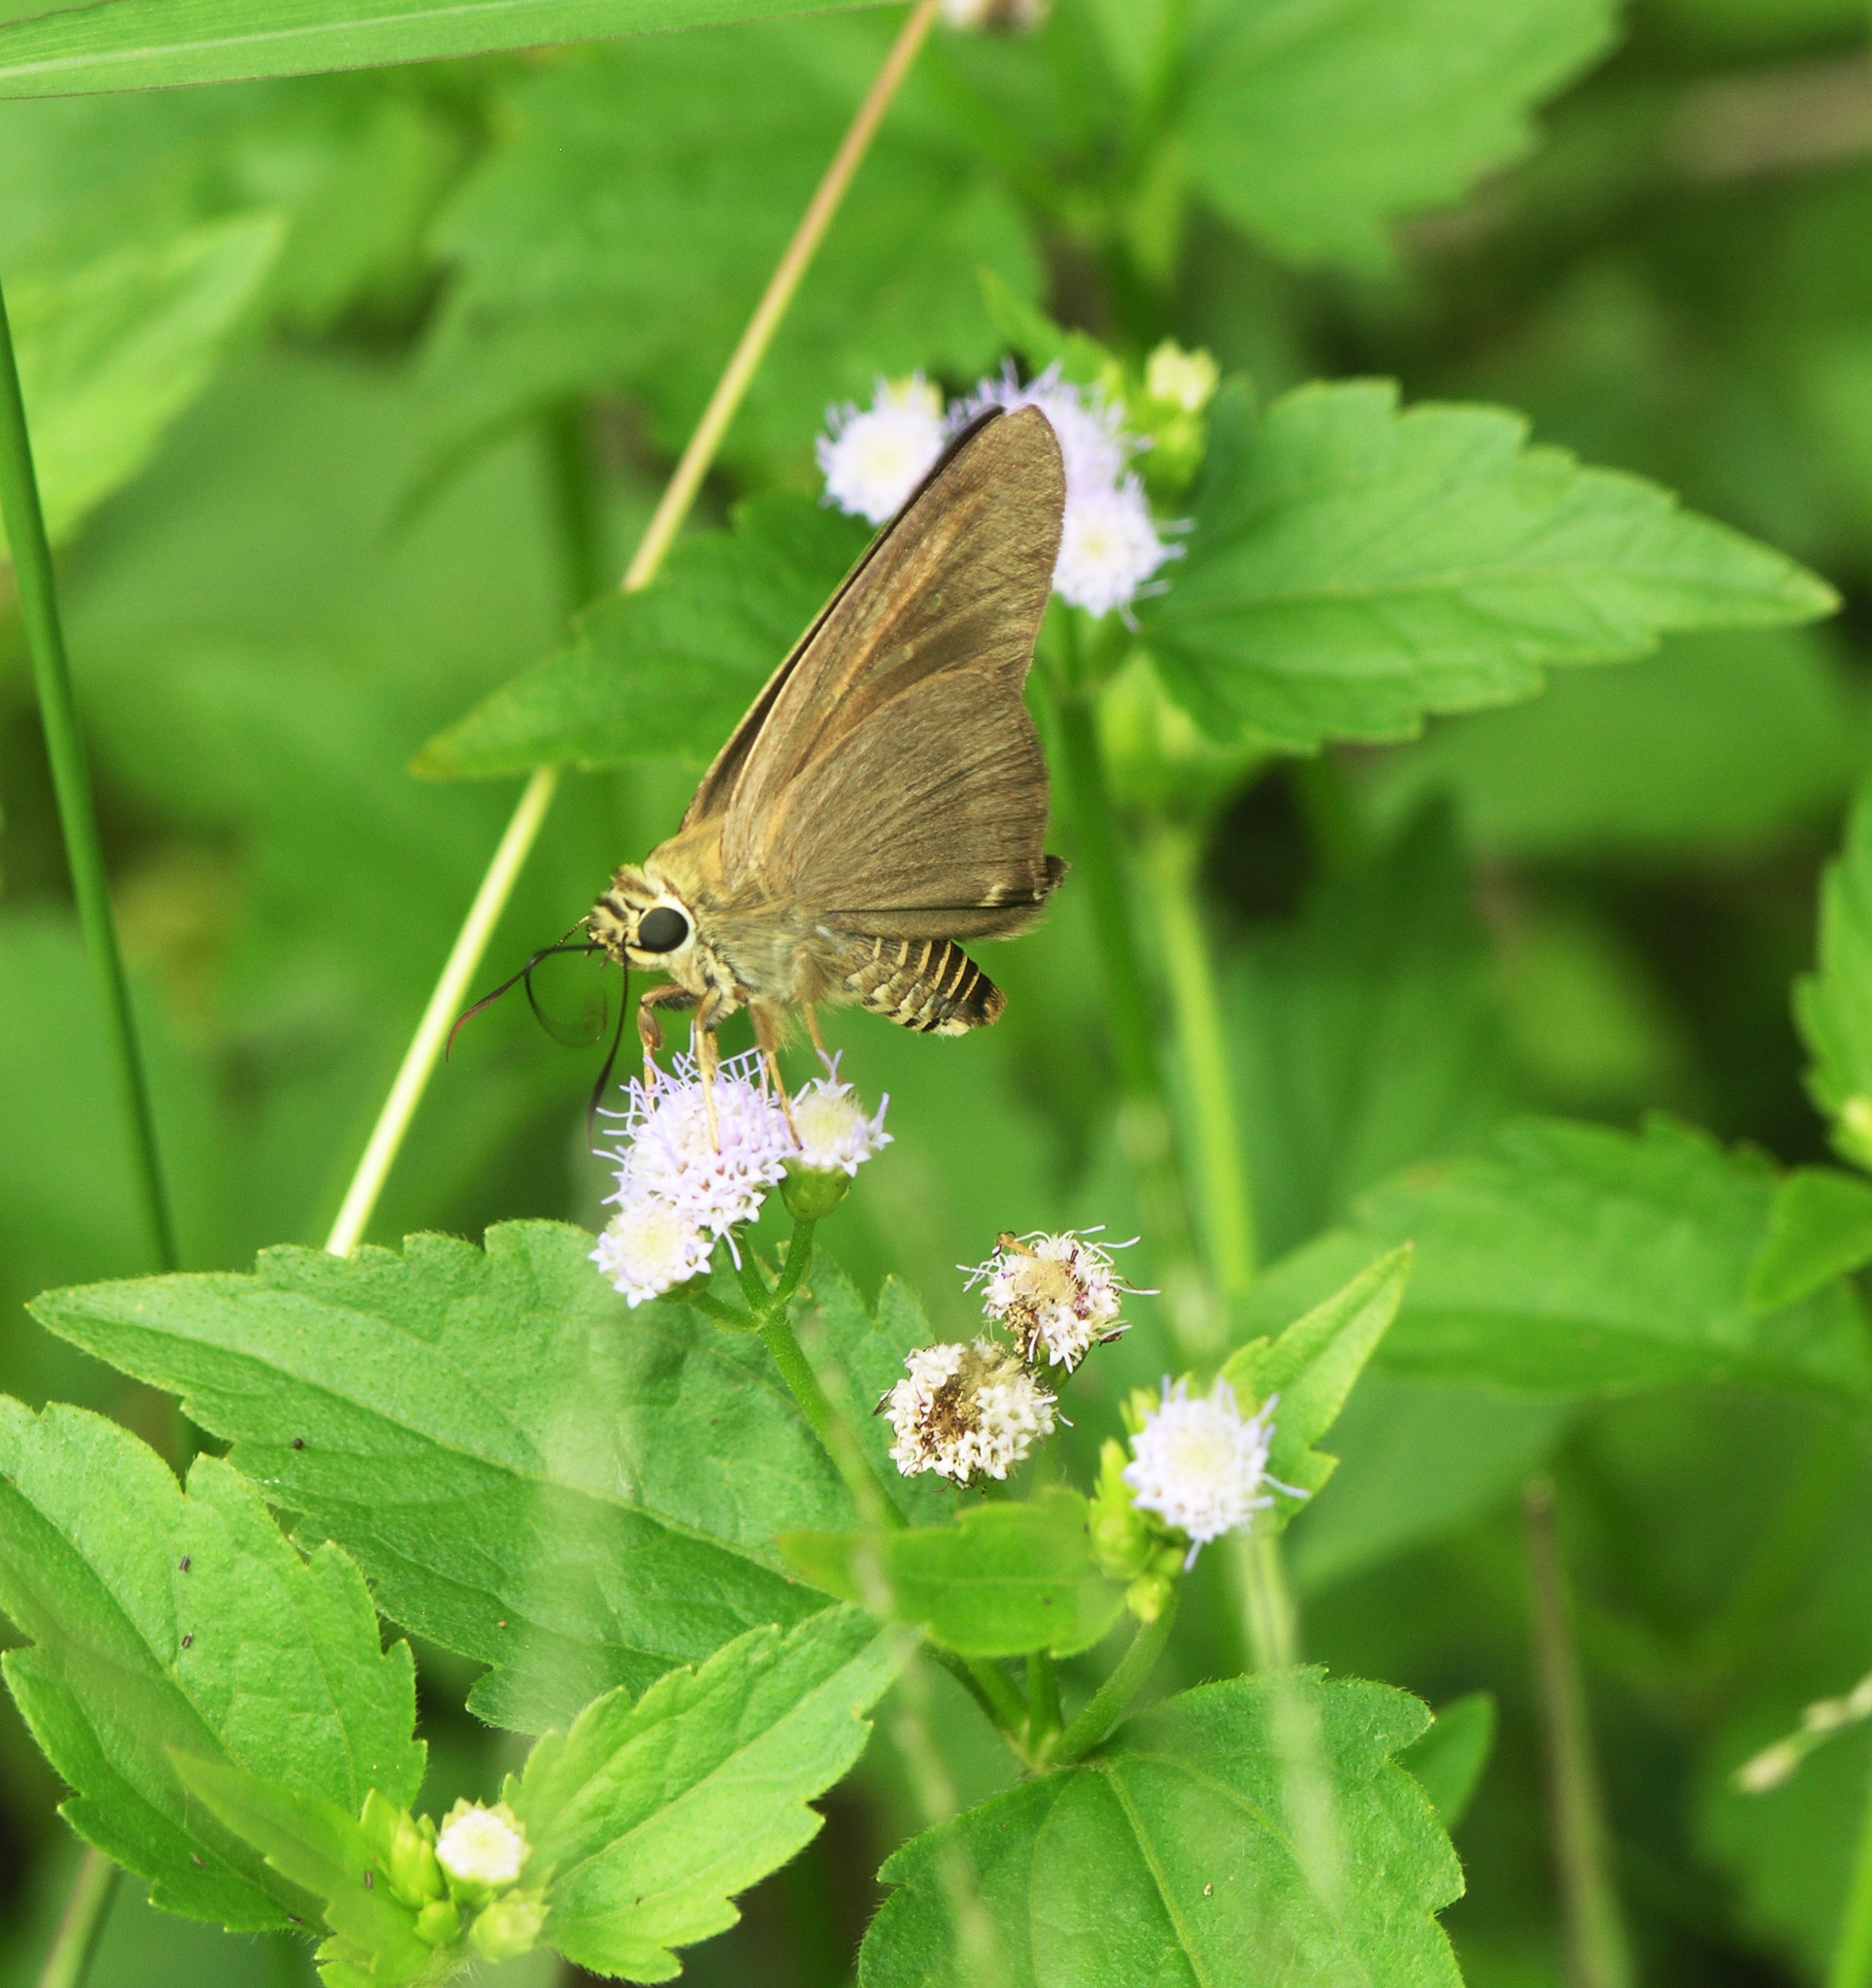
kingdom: Animalia
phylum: Arthropoda
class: Insecta
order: Lepidoptera
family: Hesperiidae
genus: Badamia
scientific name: Badamia exclamationis
